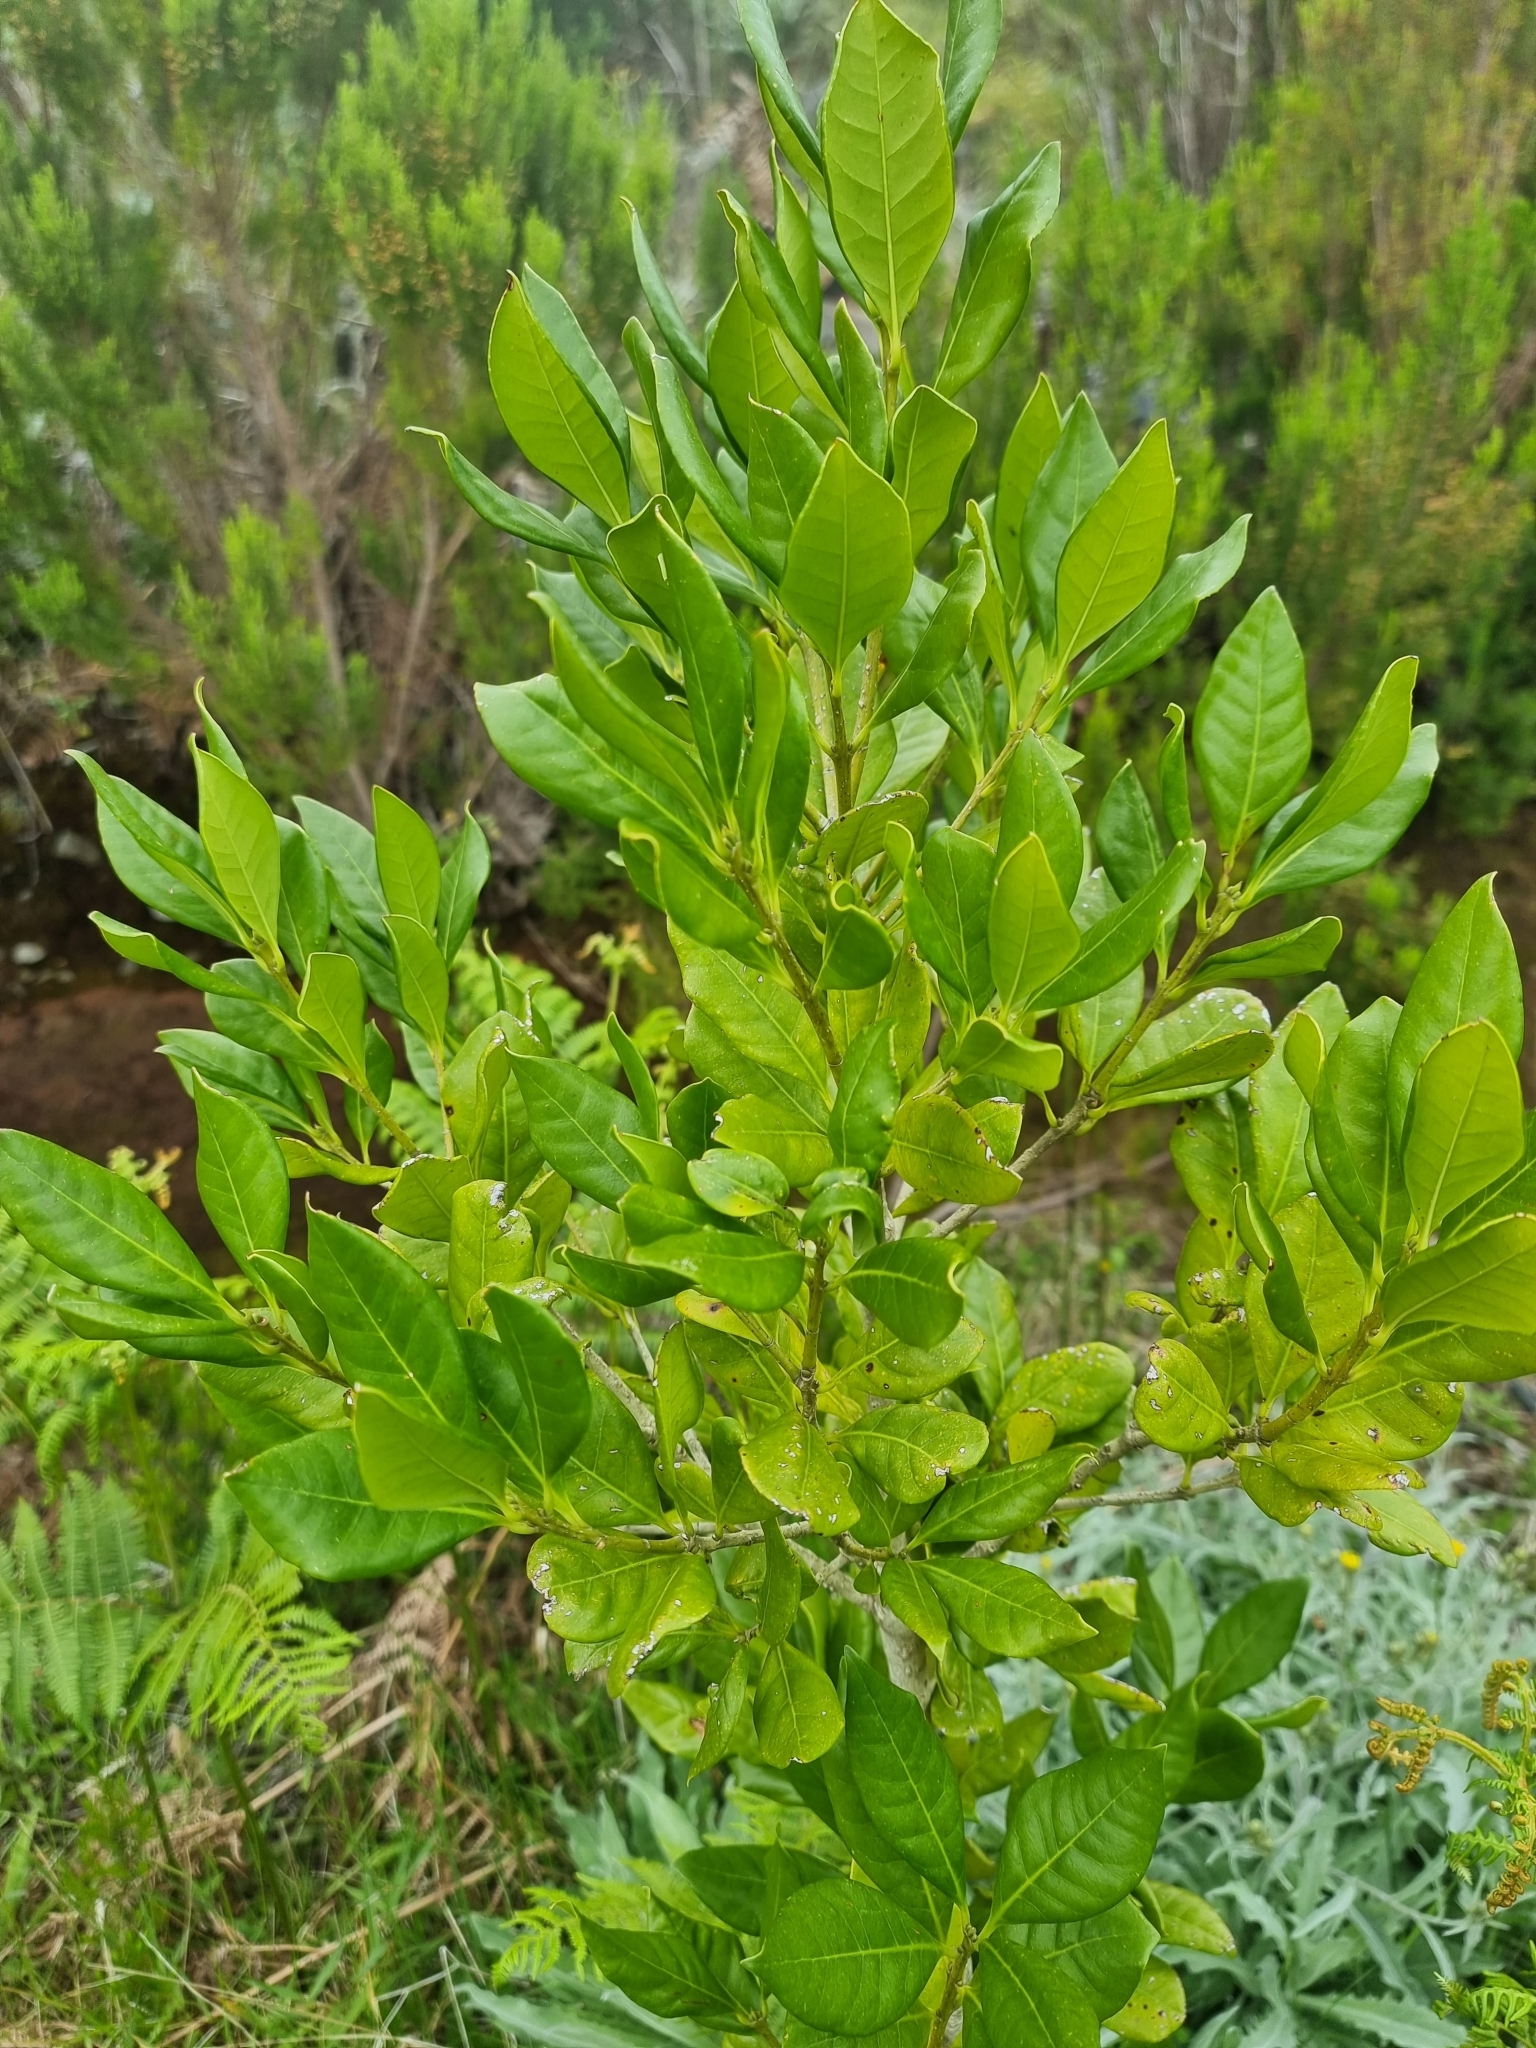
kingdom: Plantae
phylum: Tracheophyta
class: Magnoliopsida
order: Lamiales
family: Oleaceae
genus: Picconia
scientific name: Picconia excelsa
